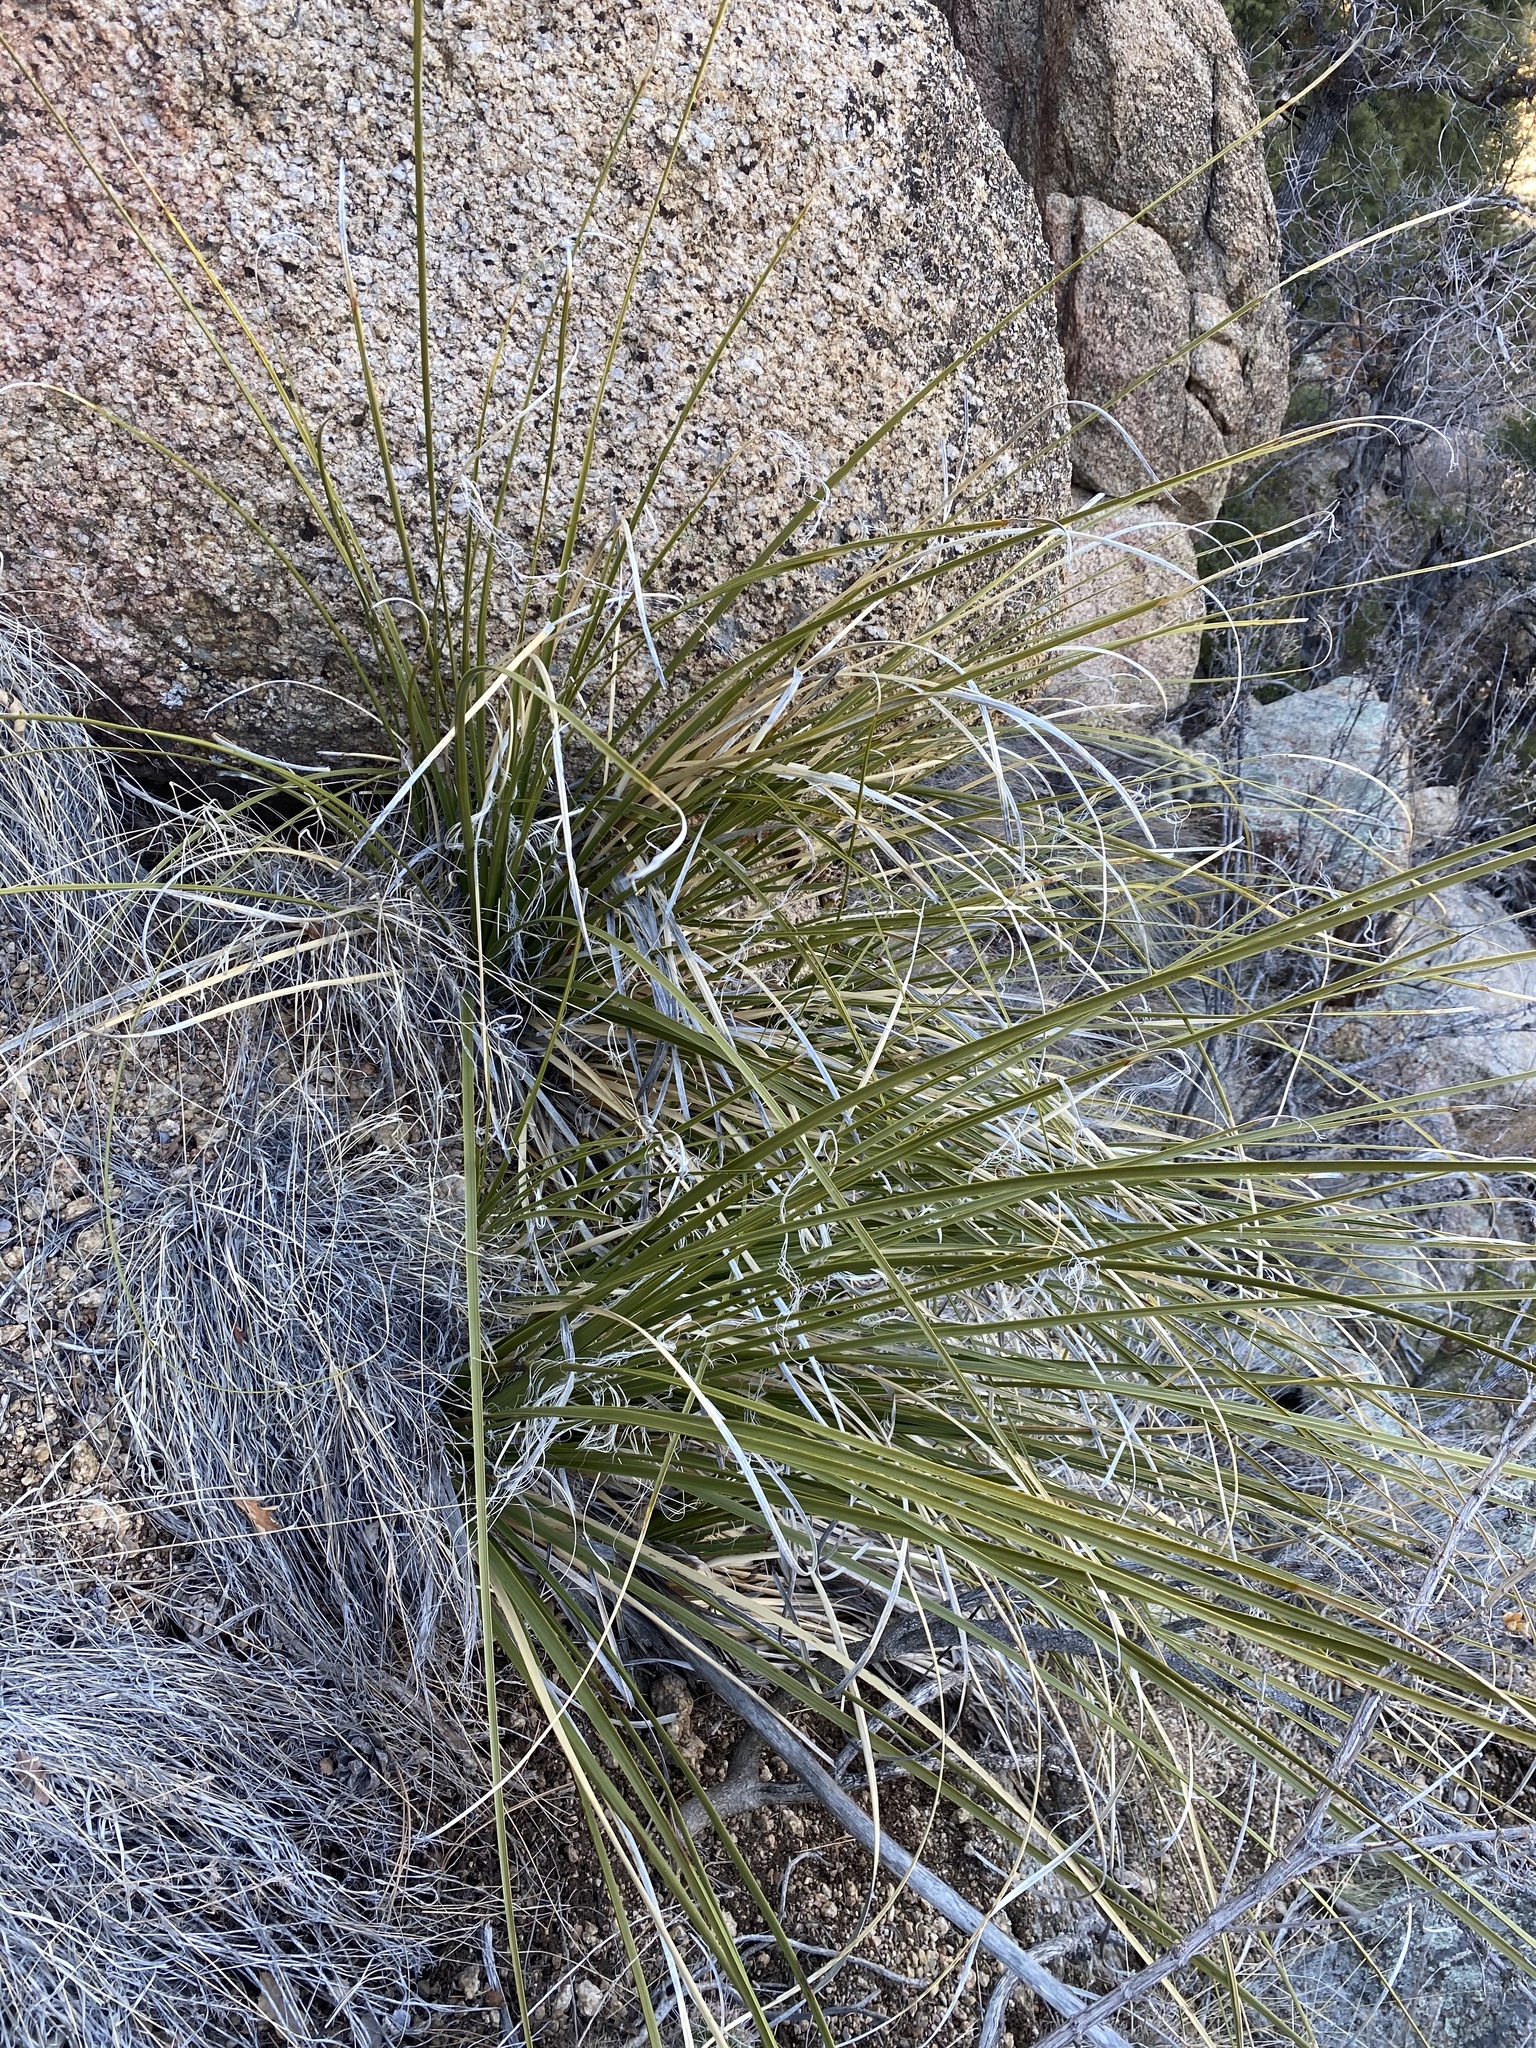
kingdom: Plantae
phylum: Tracheophyta
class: Liliopsida
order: Asparagales
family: Asparagaceae
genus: Nolina
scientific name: Nolina microcarpa
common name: Bear-grass
